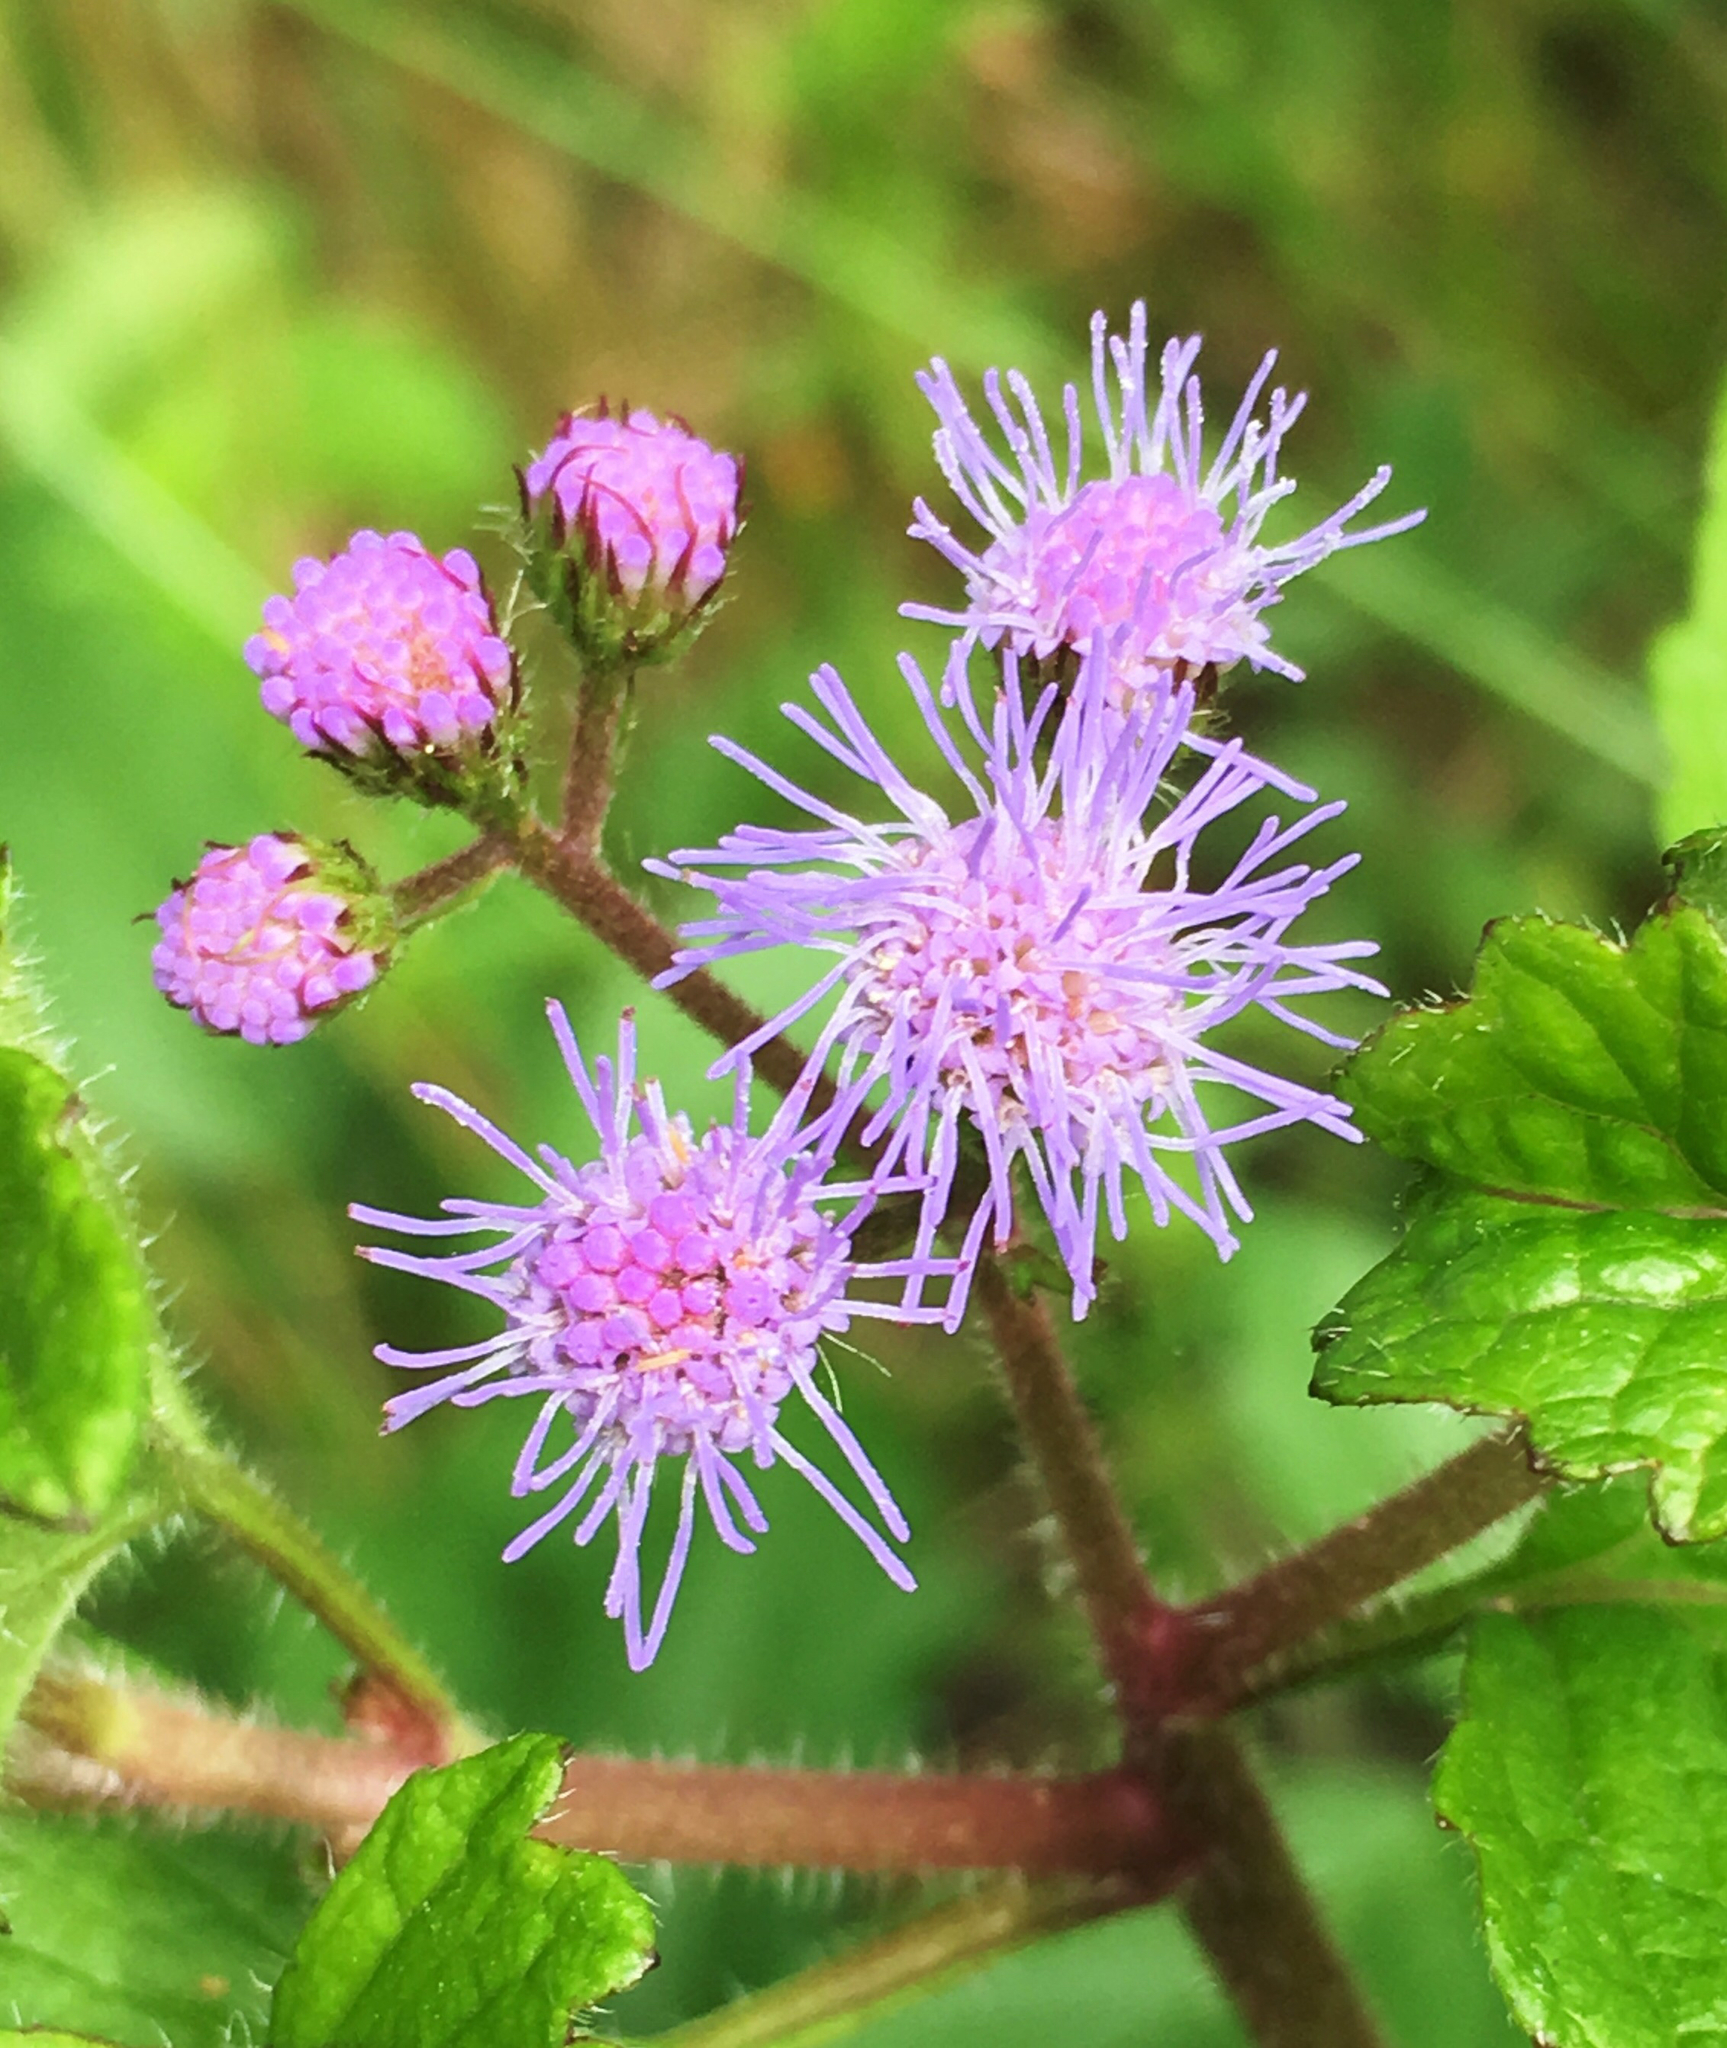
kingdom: Plantae
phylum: Tracheophyta
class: Magnoliopsida
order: Asterales
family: Asteraceae
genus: Conoclinium
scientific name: Conoclinium coelestinum
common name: Blue mistflower
